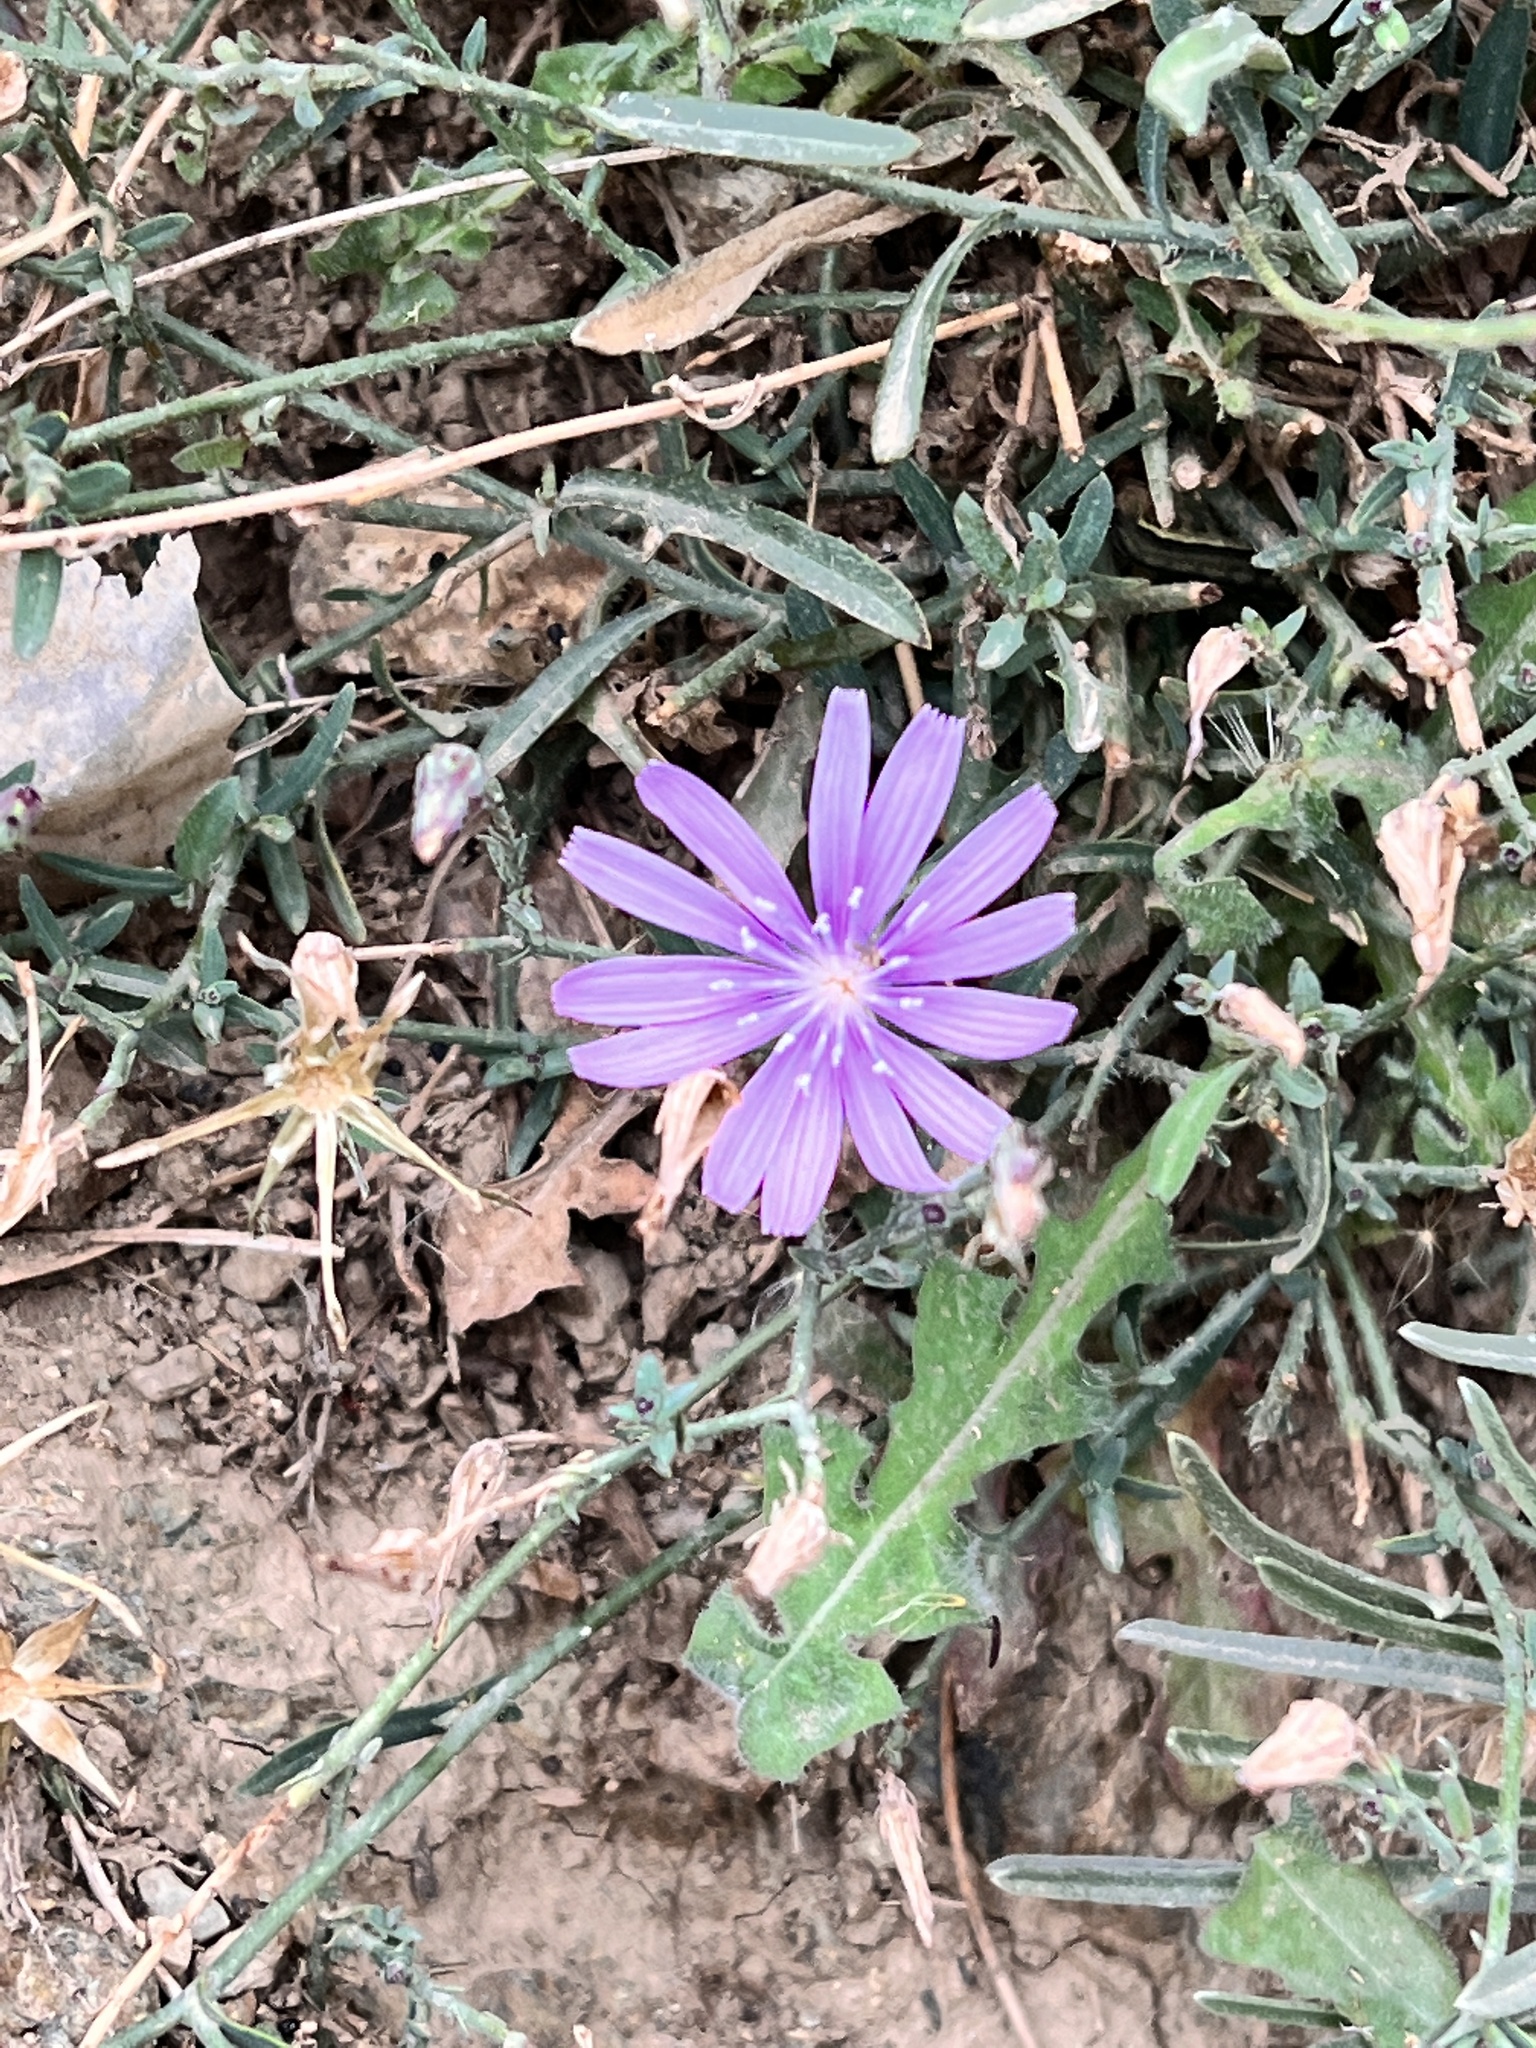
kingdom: Plantae
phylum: Tracheophyta
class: Magnoliopsida
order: Asterales
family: Asteraceae
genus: Lactuca
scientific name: Lactuca tenerrima
